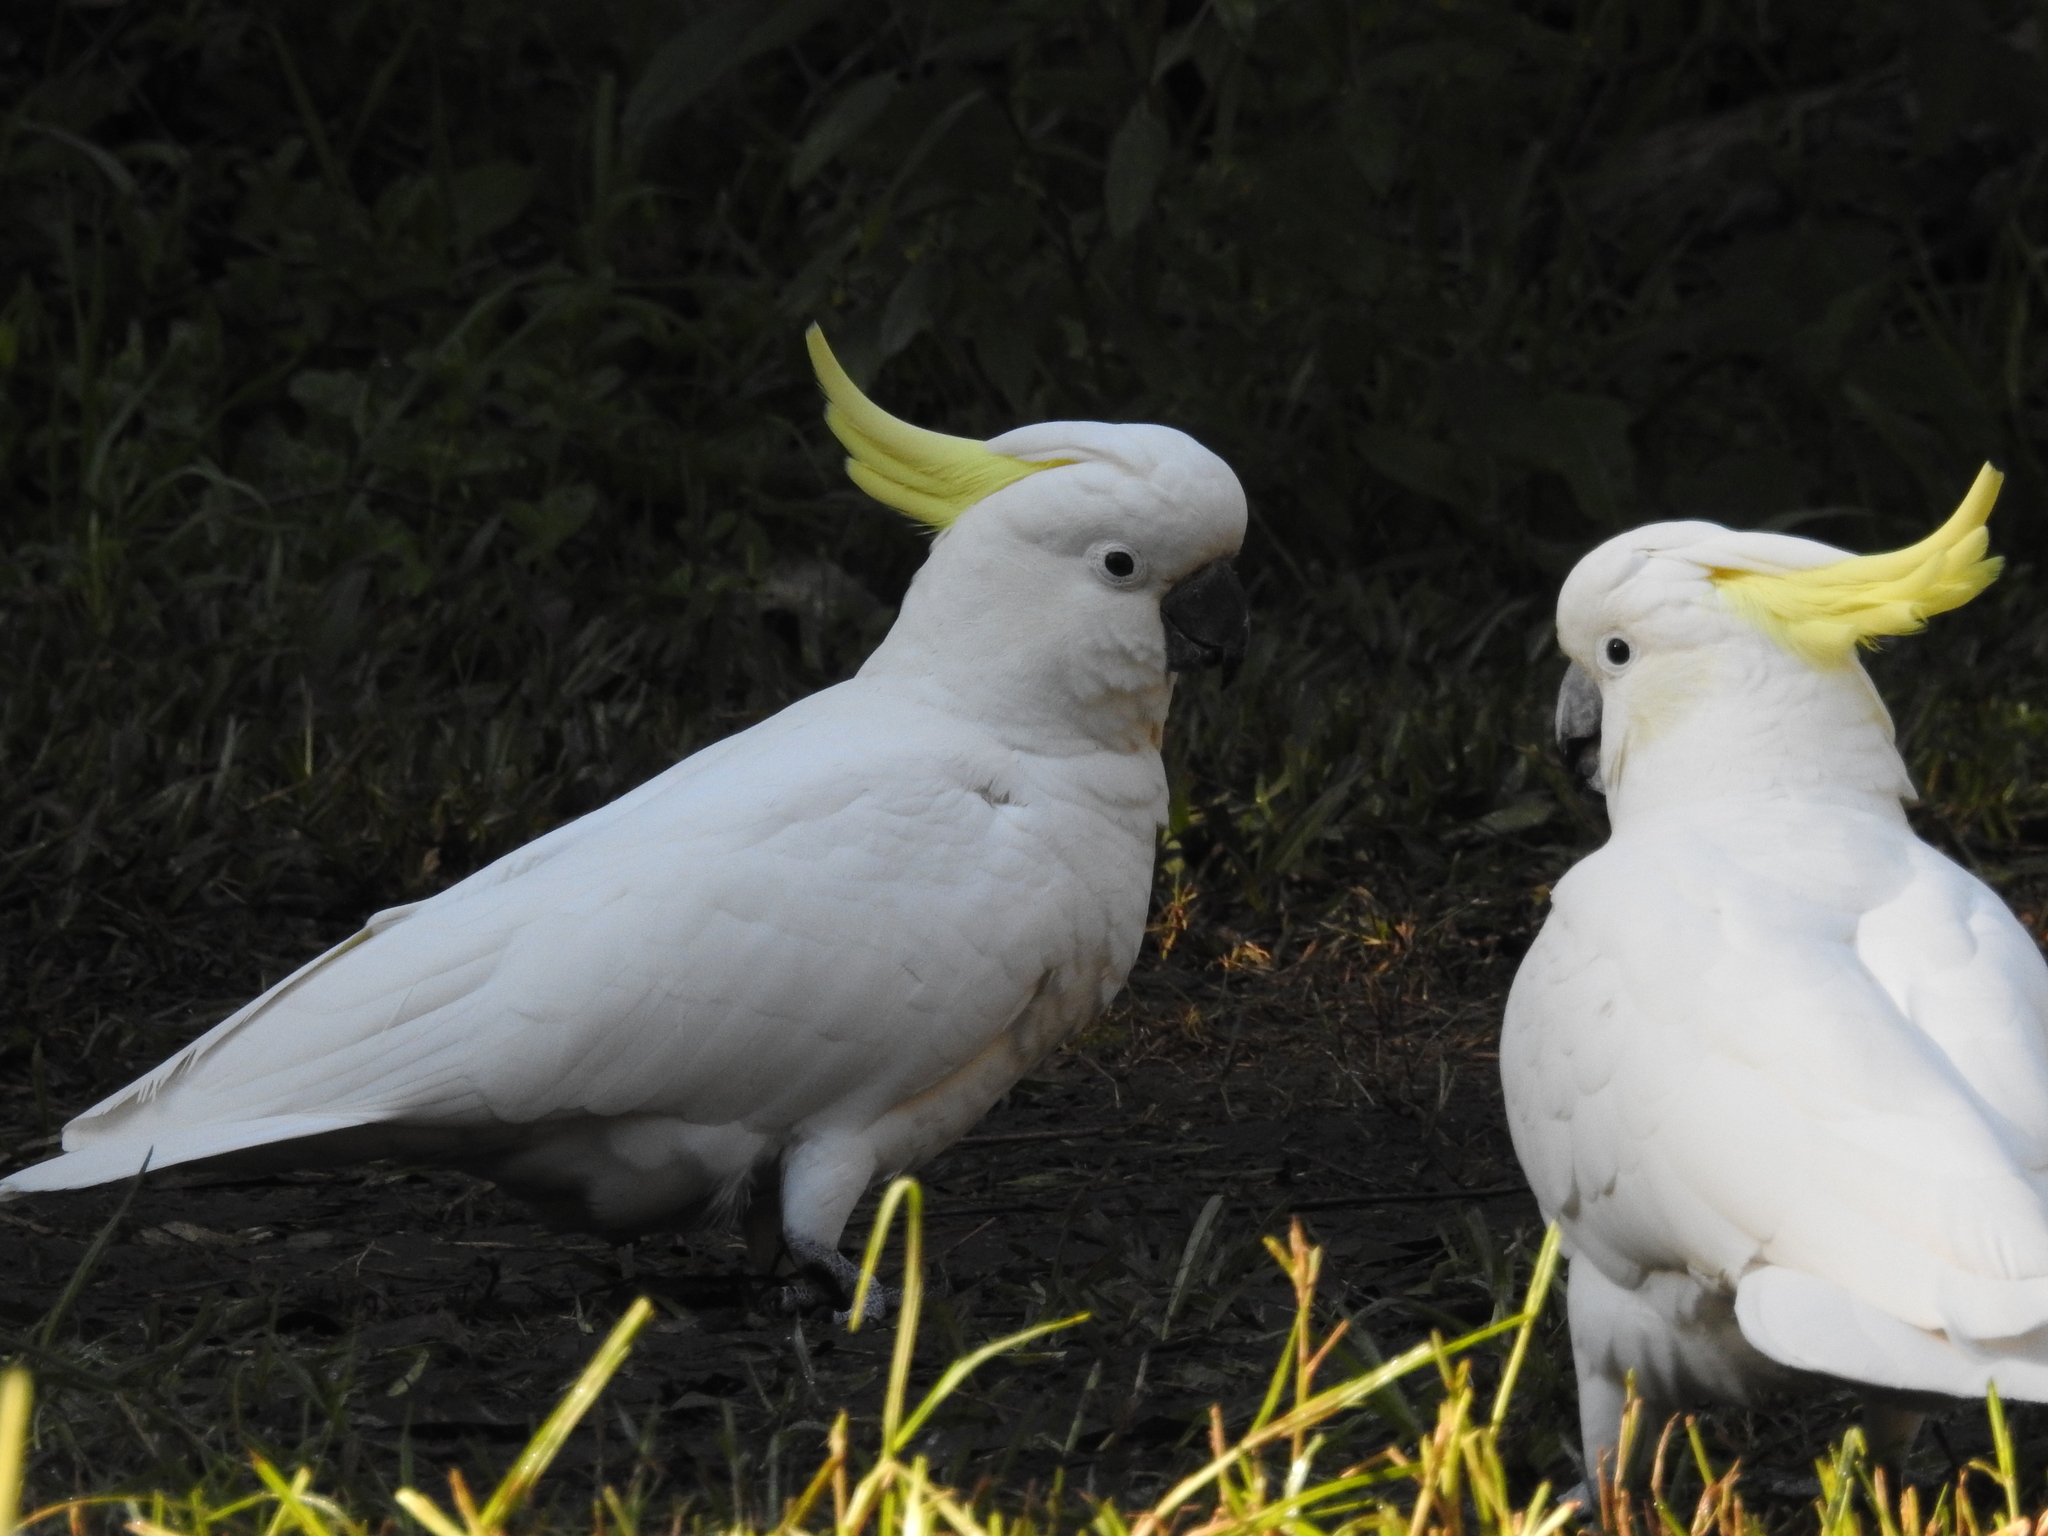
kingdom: Animalia
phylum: Chordata
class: Aves
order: Psittaciformes
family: Psittacidae
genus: Cacatua
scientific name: Cacatua galerita
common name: Sulphur-crested cockatoo
